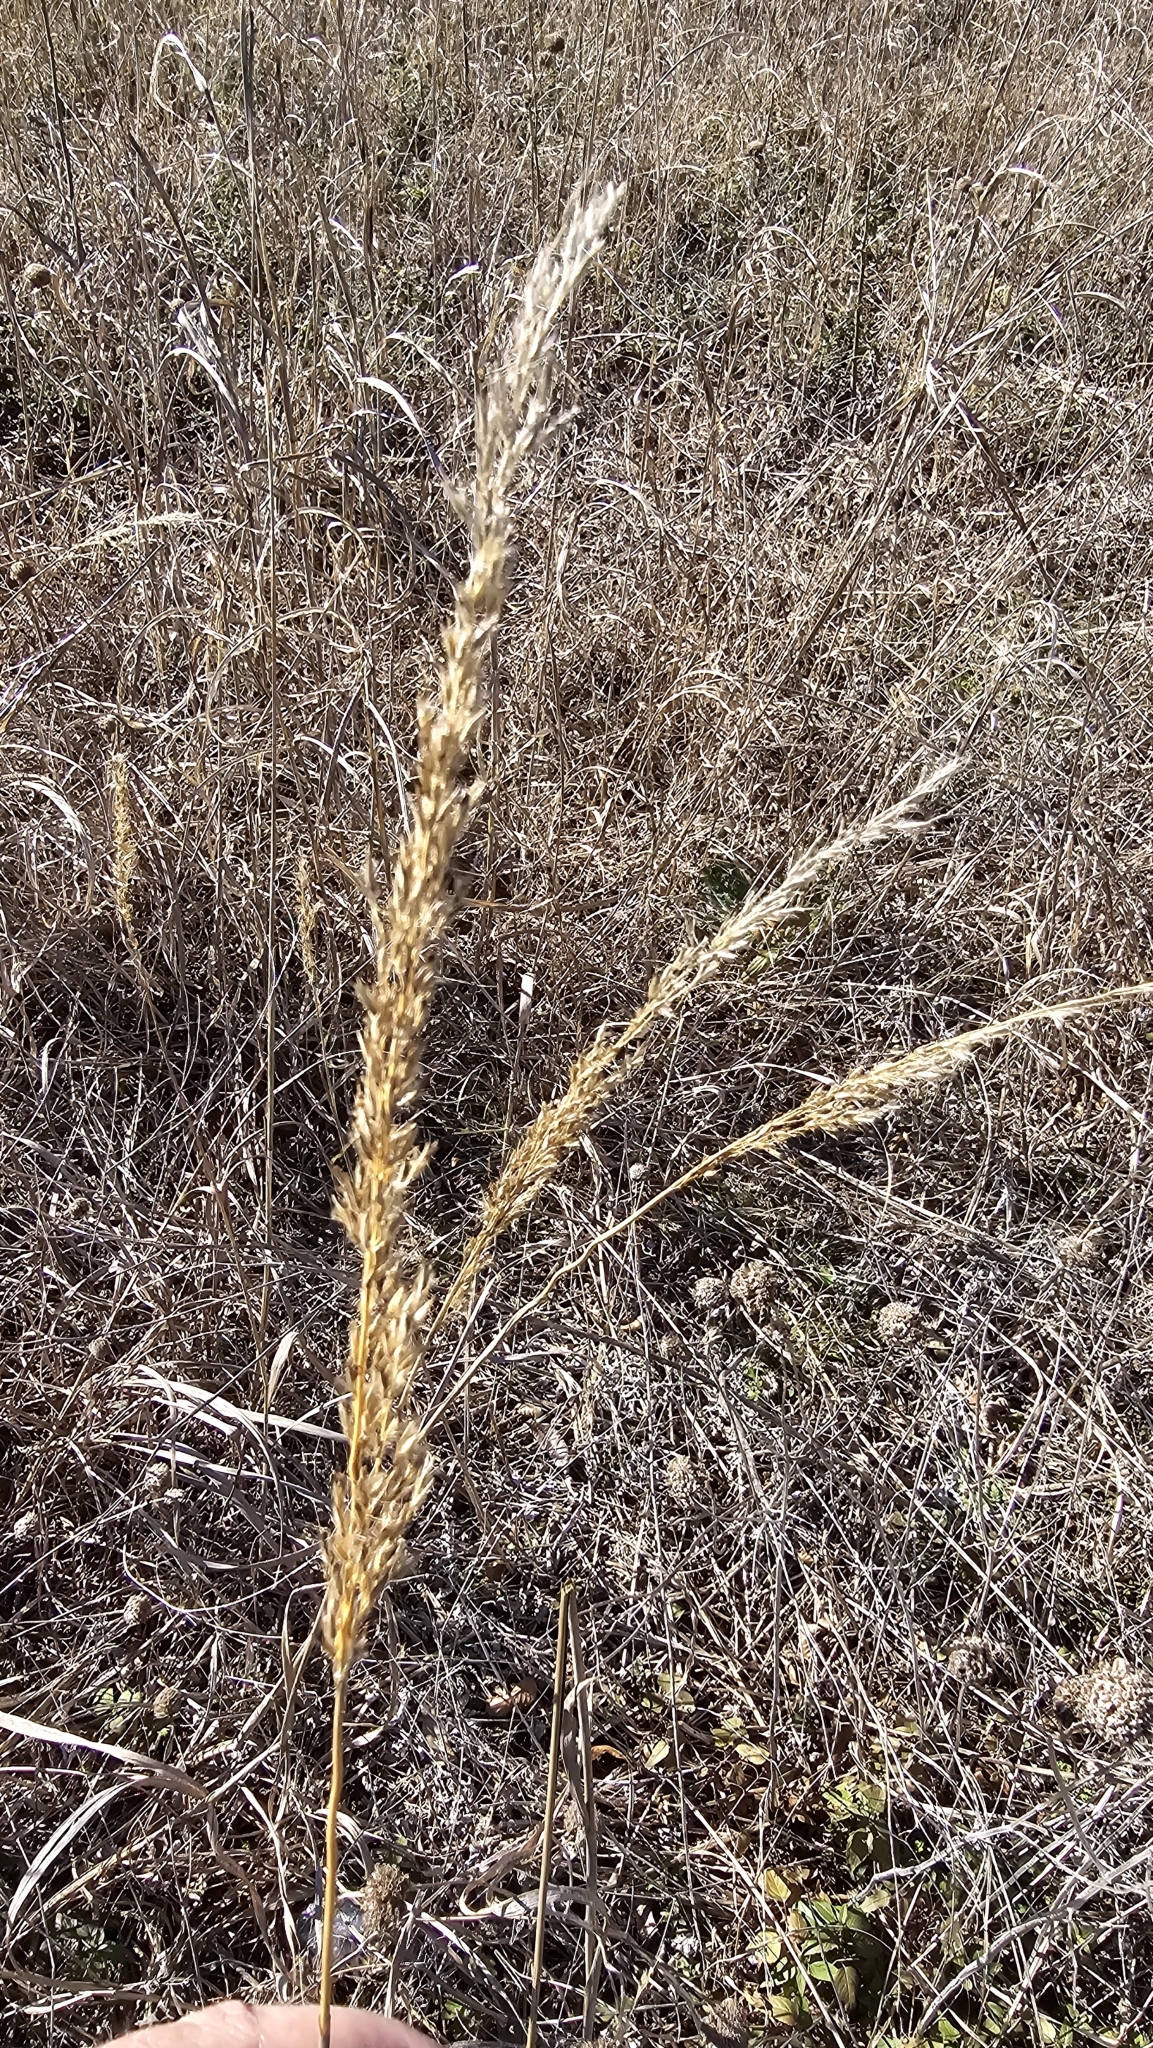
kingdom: Plantae
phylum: Tracheophyta
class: Liliopsida
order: Poales
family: Poaceae
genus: Sorghastrum
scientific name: Sorghastrum nutans
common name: Indian grass
